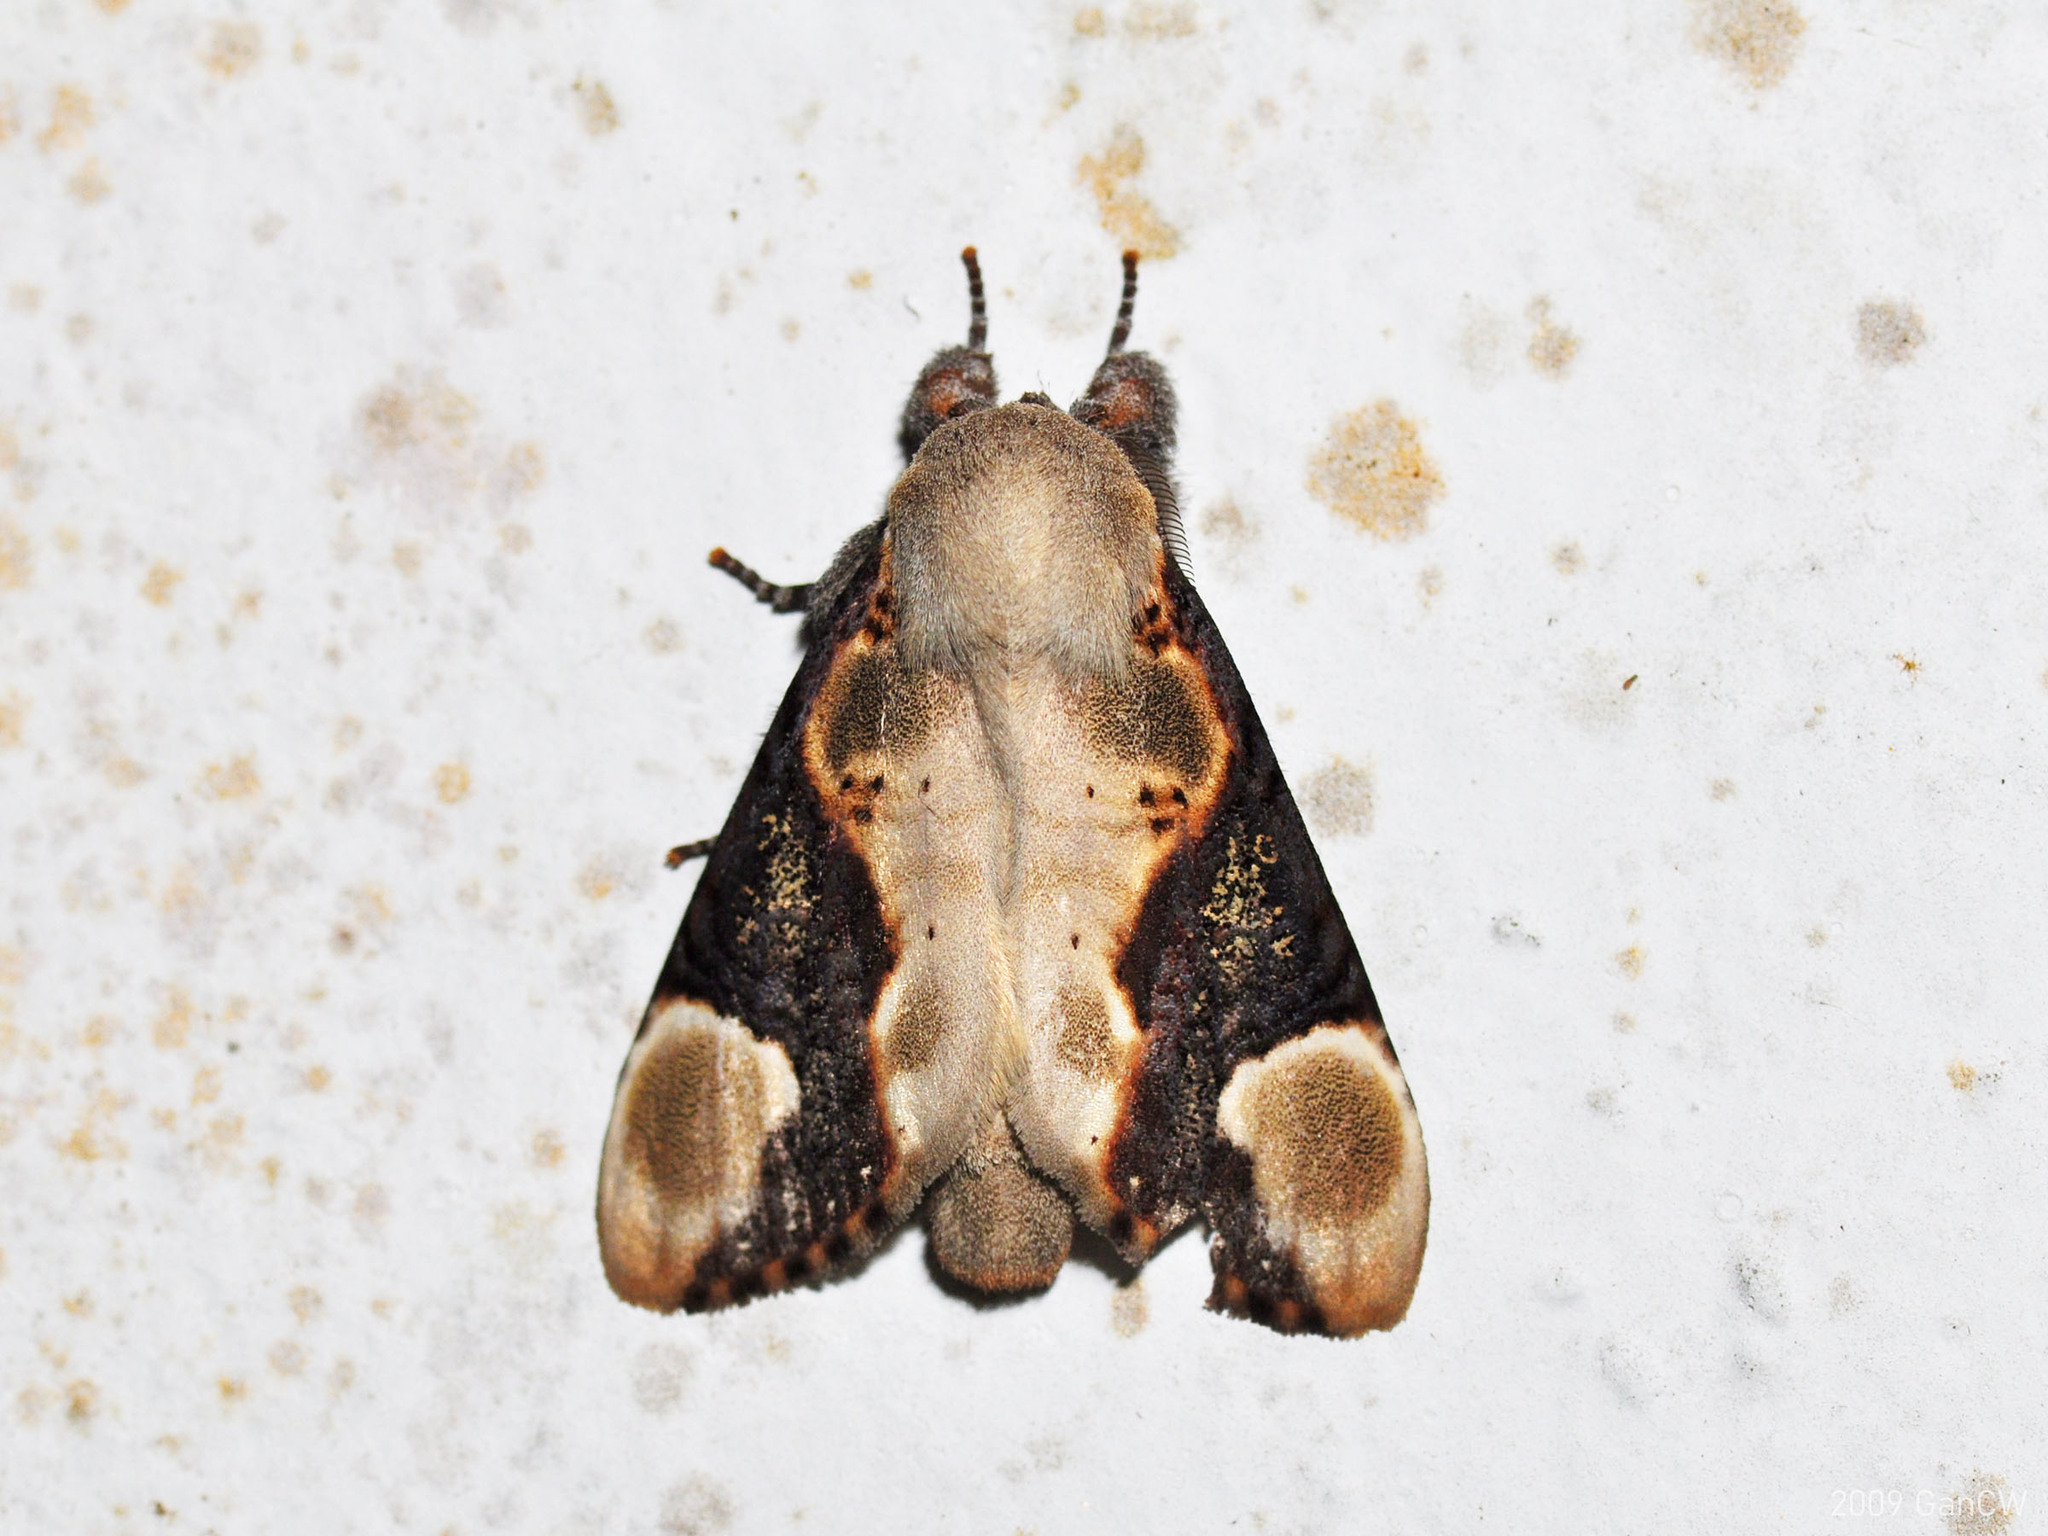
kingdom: Animalia
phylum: Arthropoda
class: Insecta
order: Lepidoptera
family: Notodontidae
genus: Formofentonia
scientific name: Formofentonia orbifer
